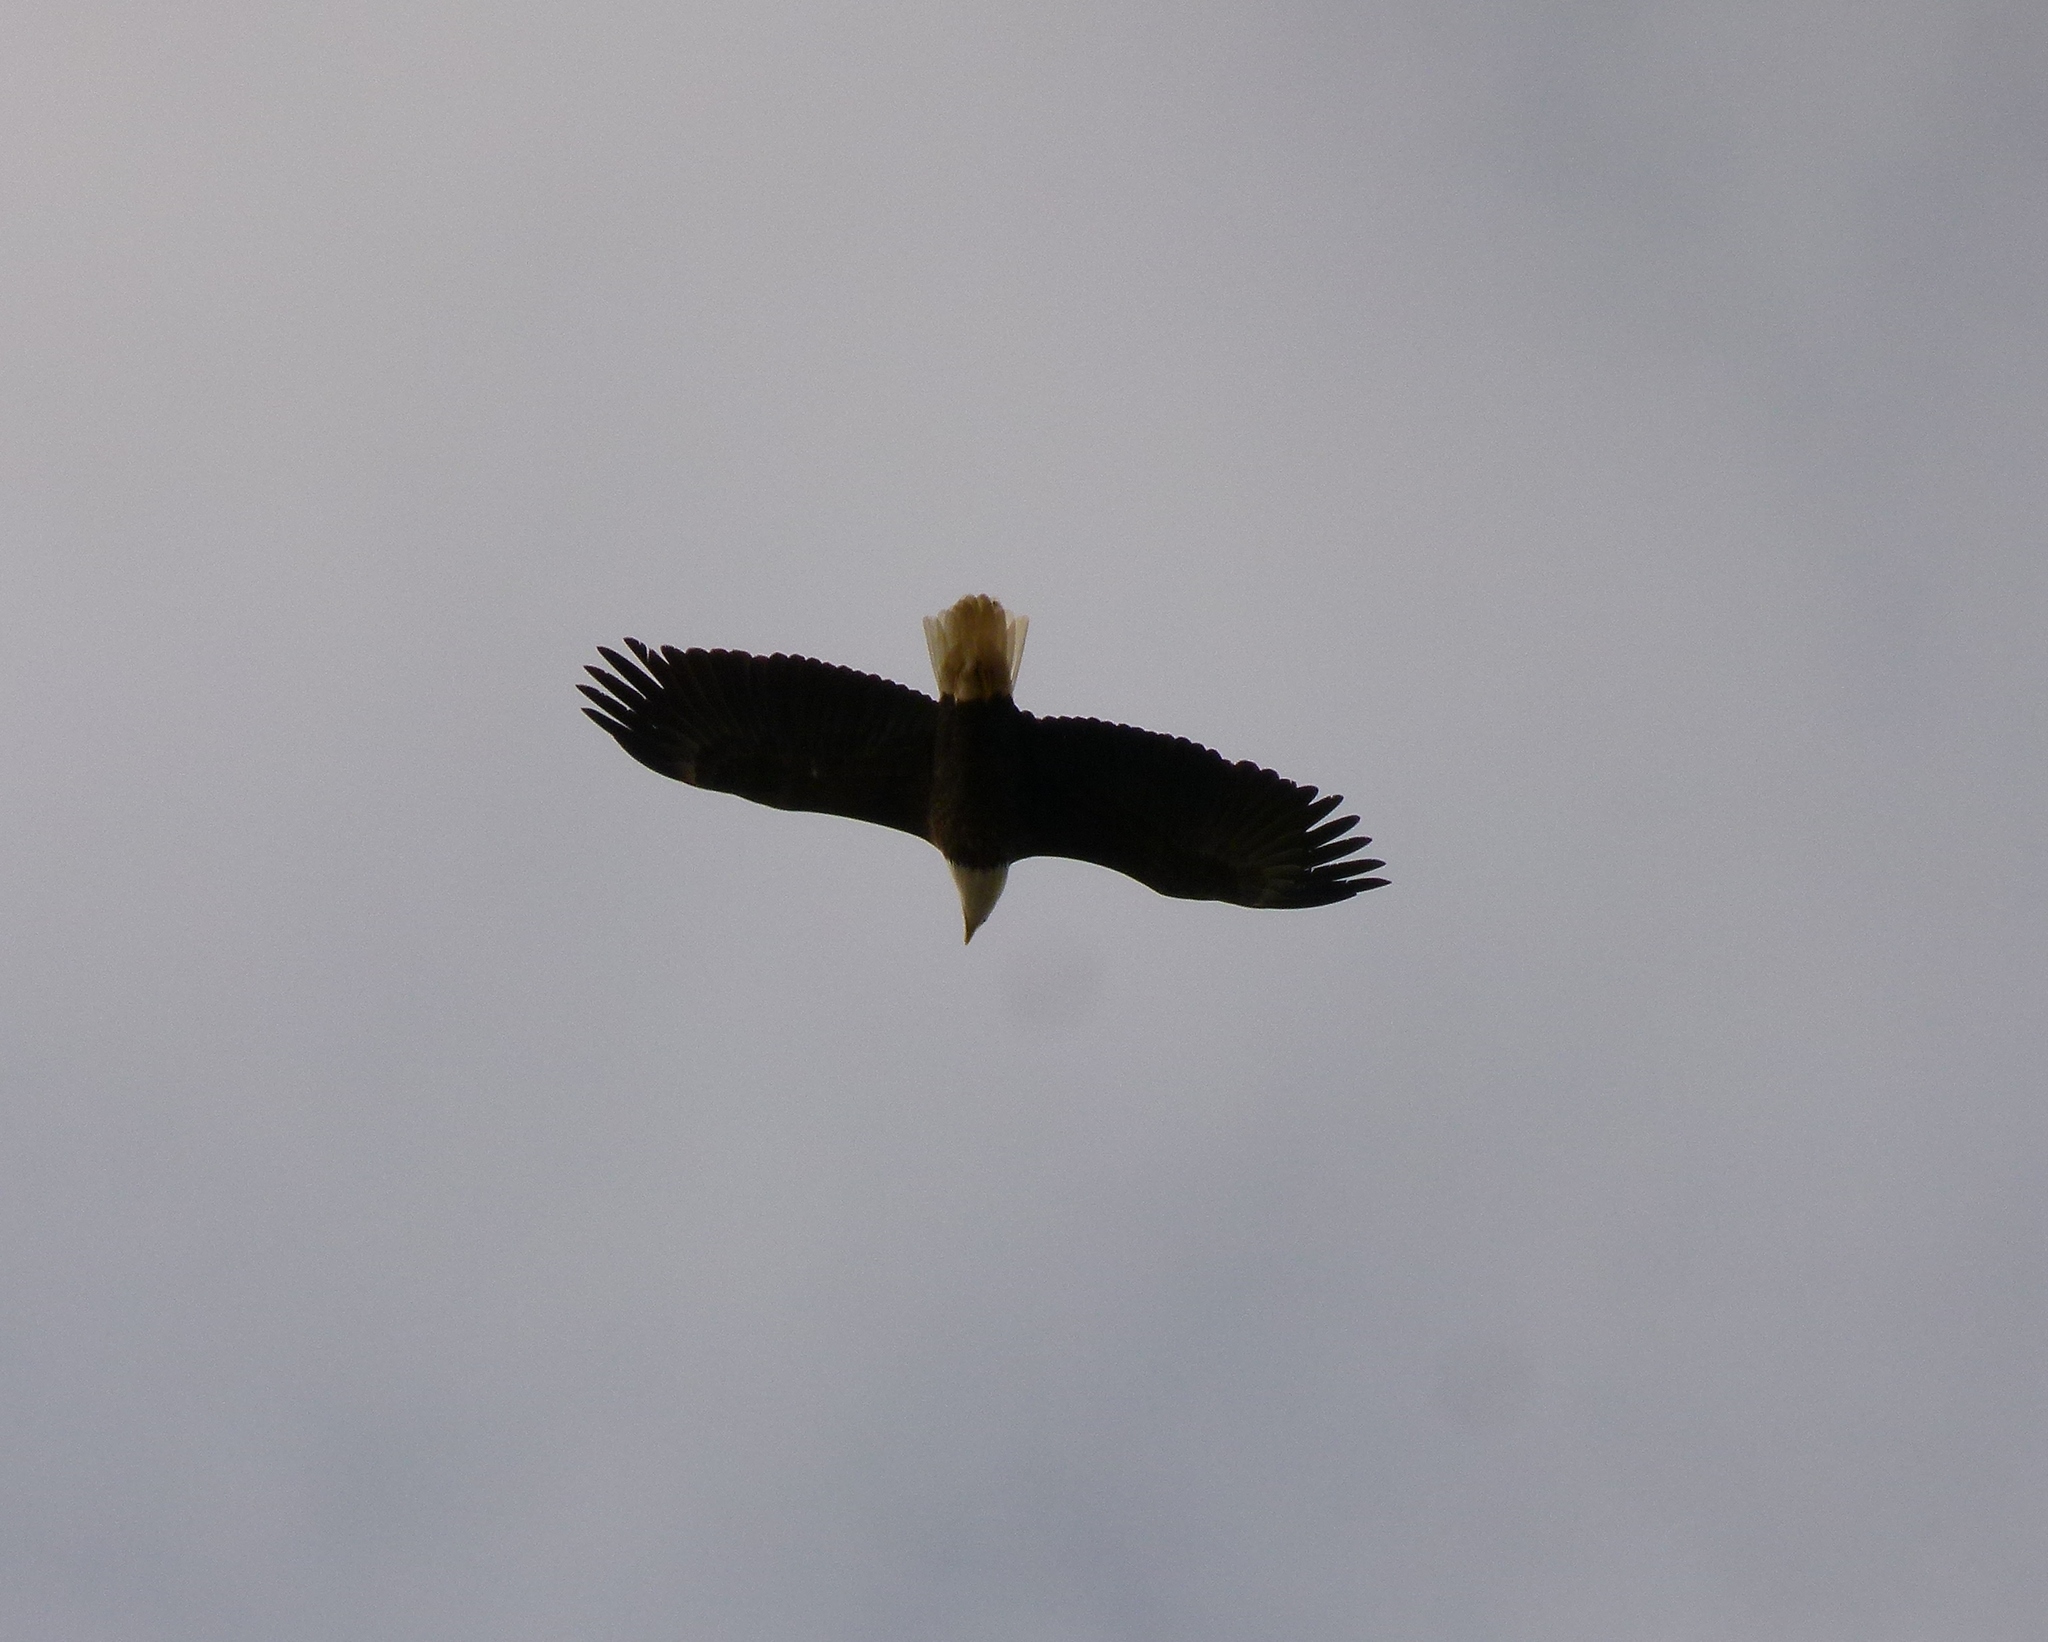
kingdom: Animalia
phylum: Chordata
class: Aves
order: Accipitriformes
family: Accipitridae
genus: Haliaeetus
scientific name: Haliaeetus leucocephalus
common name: Bald eagle
